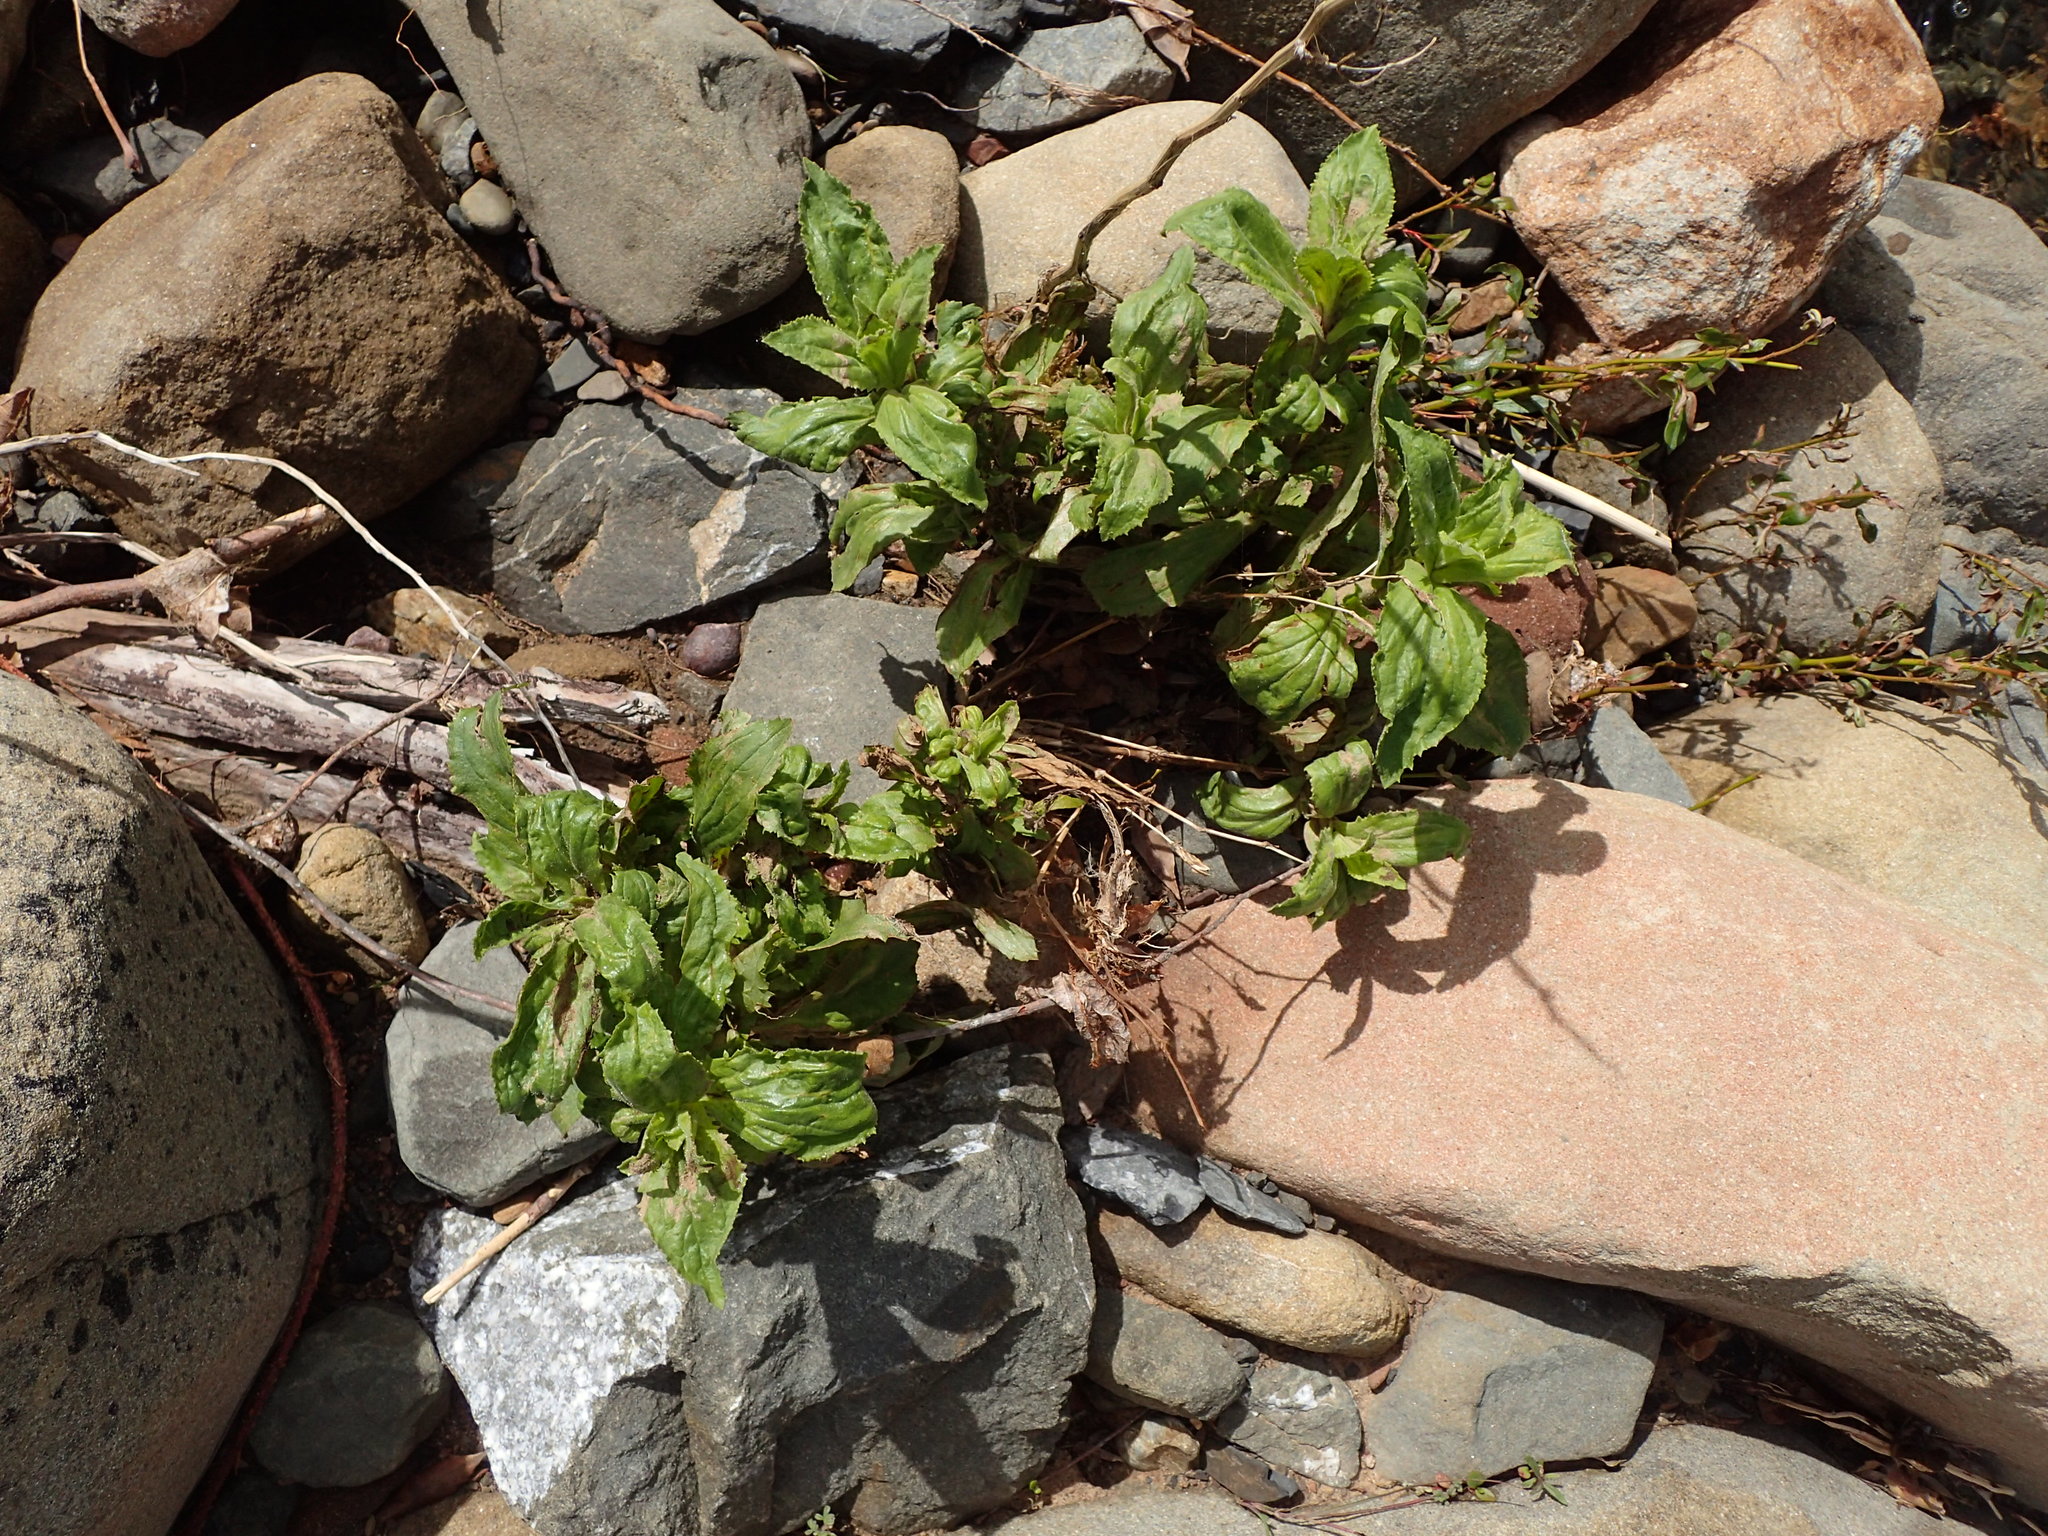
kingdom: Plantae
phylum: Tracheophyta
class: Magnoliopsida
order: Lamiales
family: Phrymaceae
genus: Erythranthe
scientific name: Erythranthe cardinalis
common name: Scarlet monkey-flower
